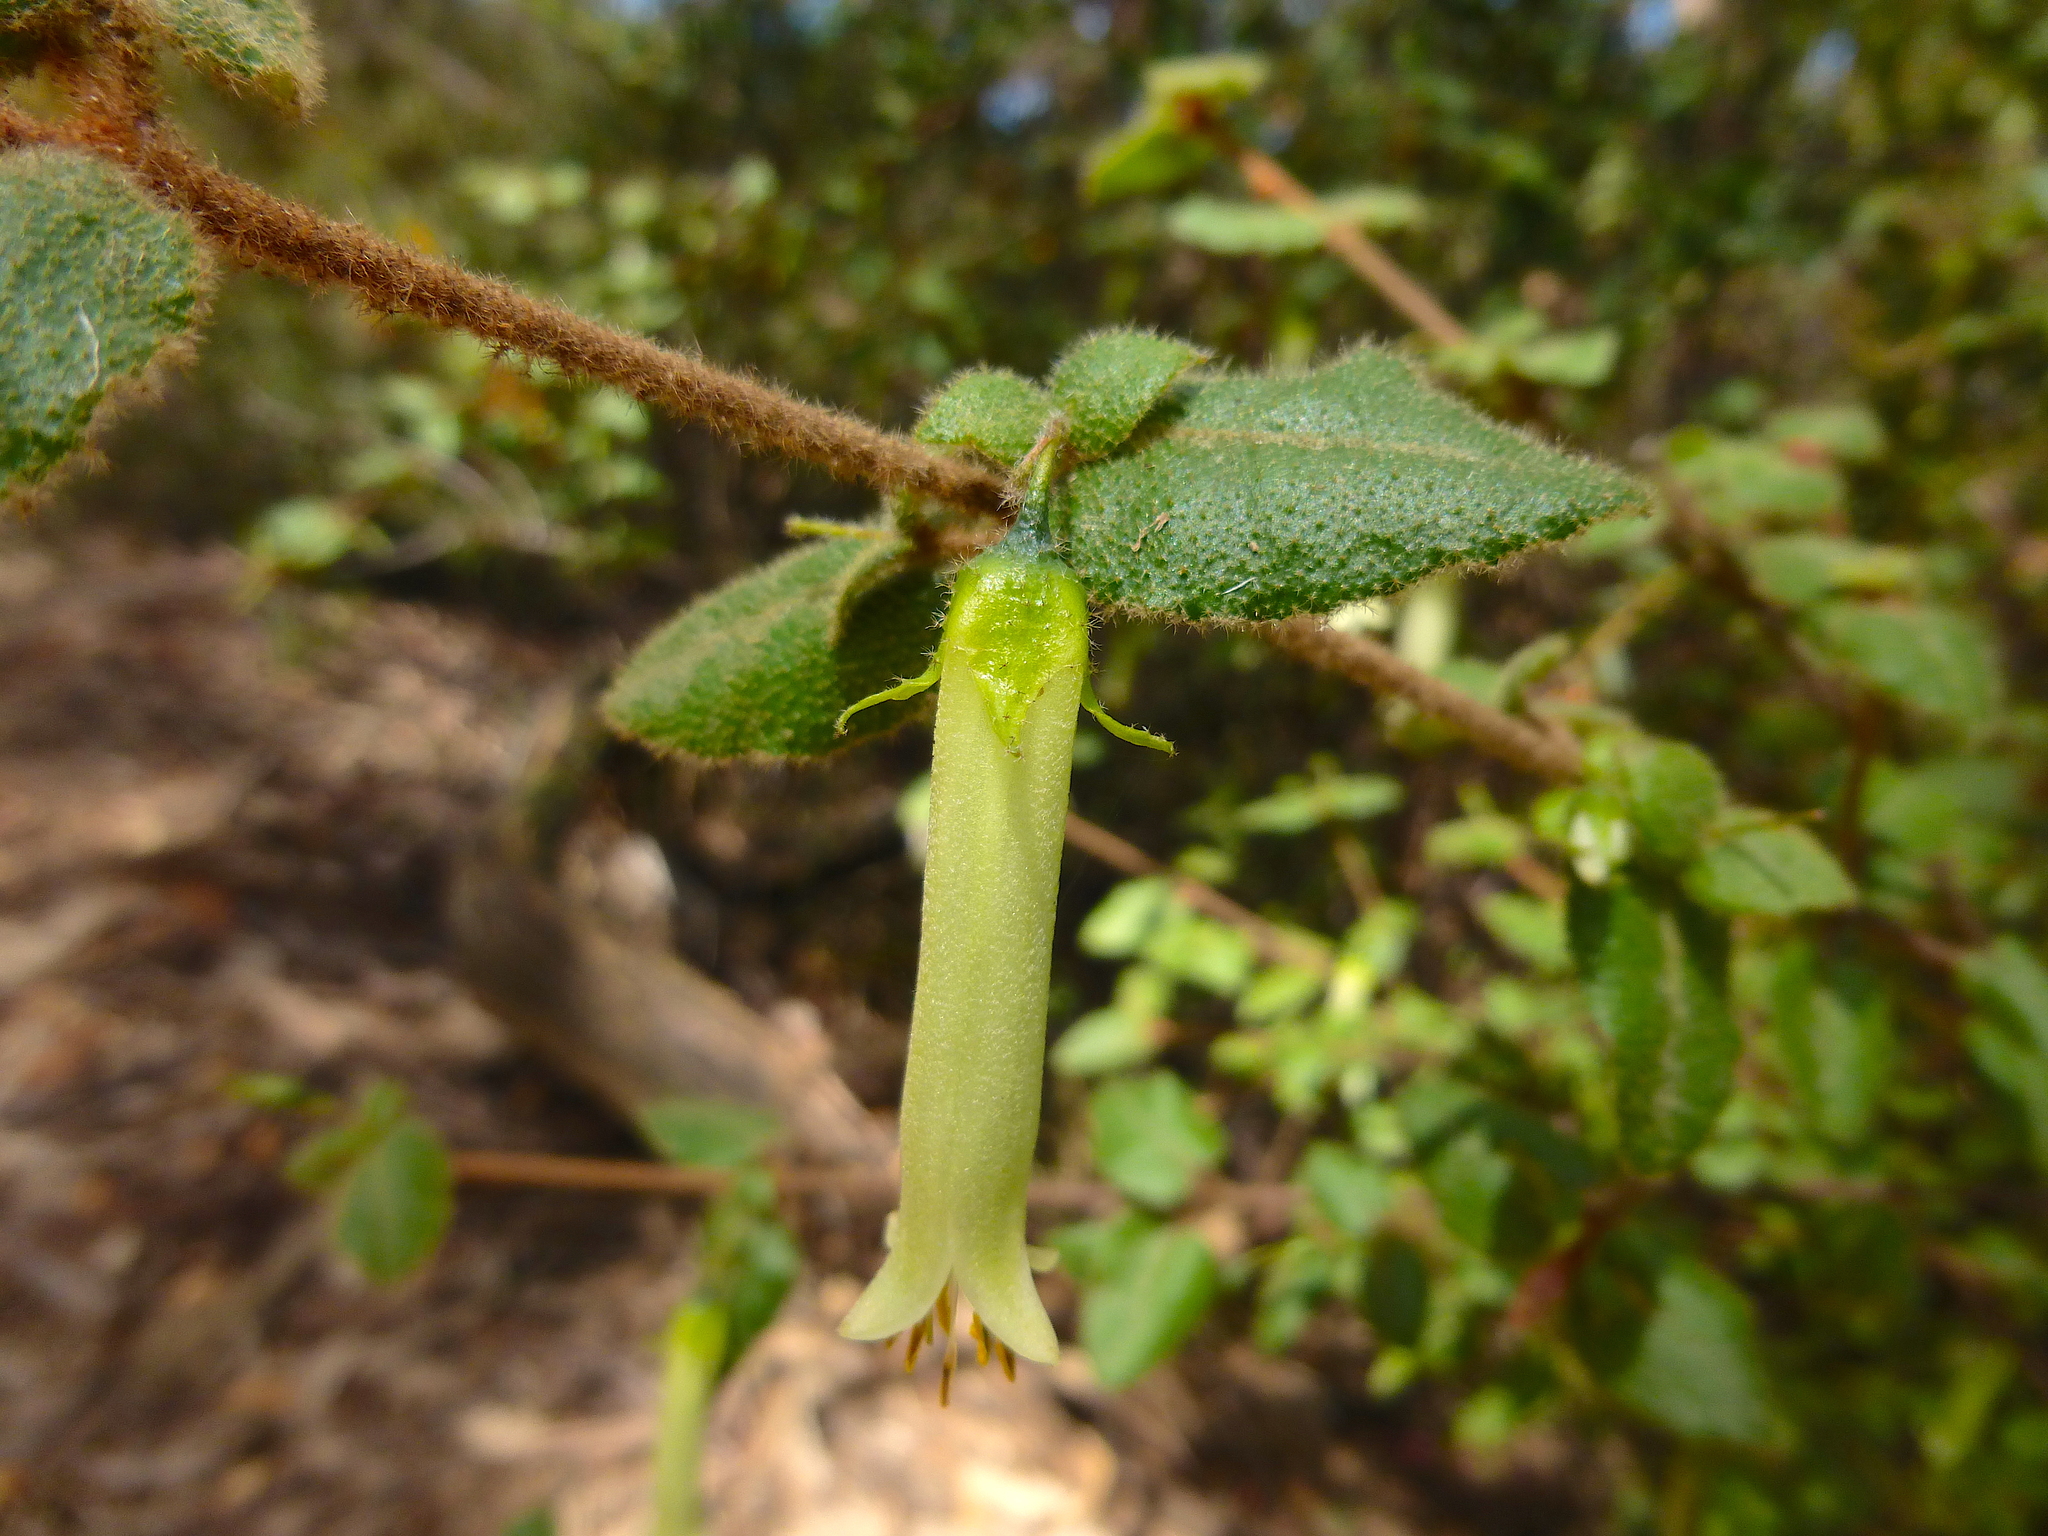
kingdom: Plantae
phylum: Tracheophyta
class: Magnoliopsida
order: Sapindales
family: Rutaceae
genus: Correa
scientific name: Correa aemula
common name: Hairy correa
